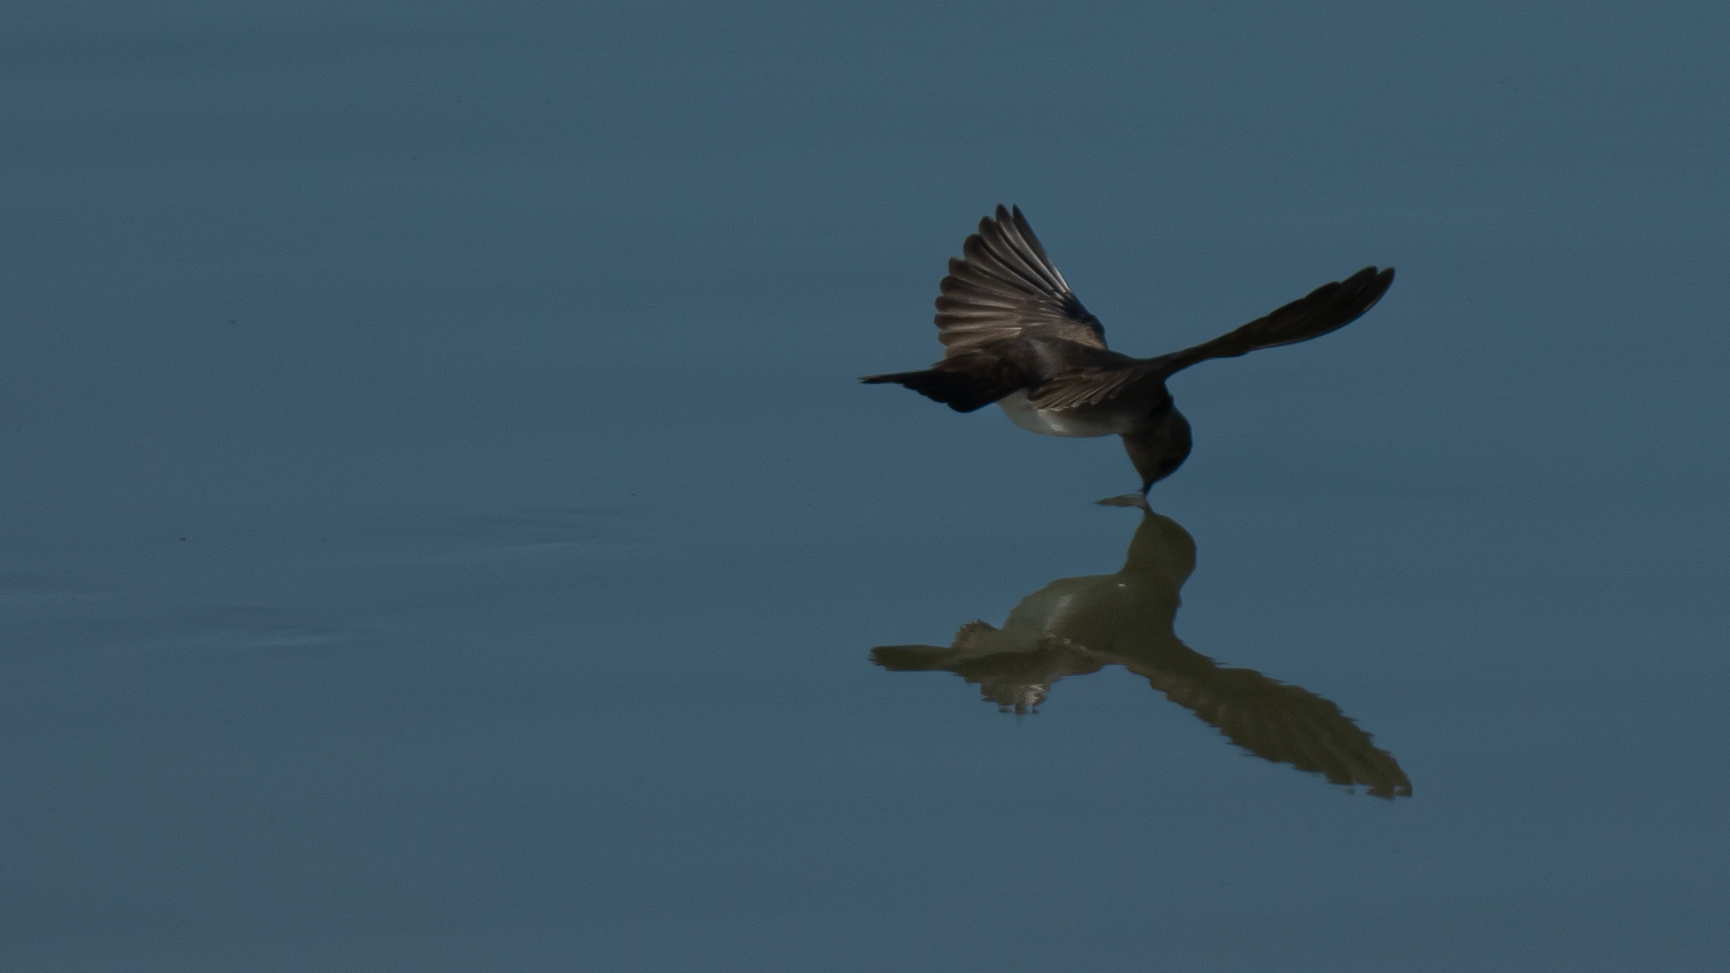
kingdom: Animalia
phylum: Chordata
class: Aves
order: Passeriformes
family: Hirundinidae
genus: Stelgidopteryx
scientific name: Stelgidopteryx serripennis
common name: Northern rough-winged swallow
